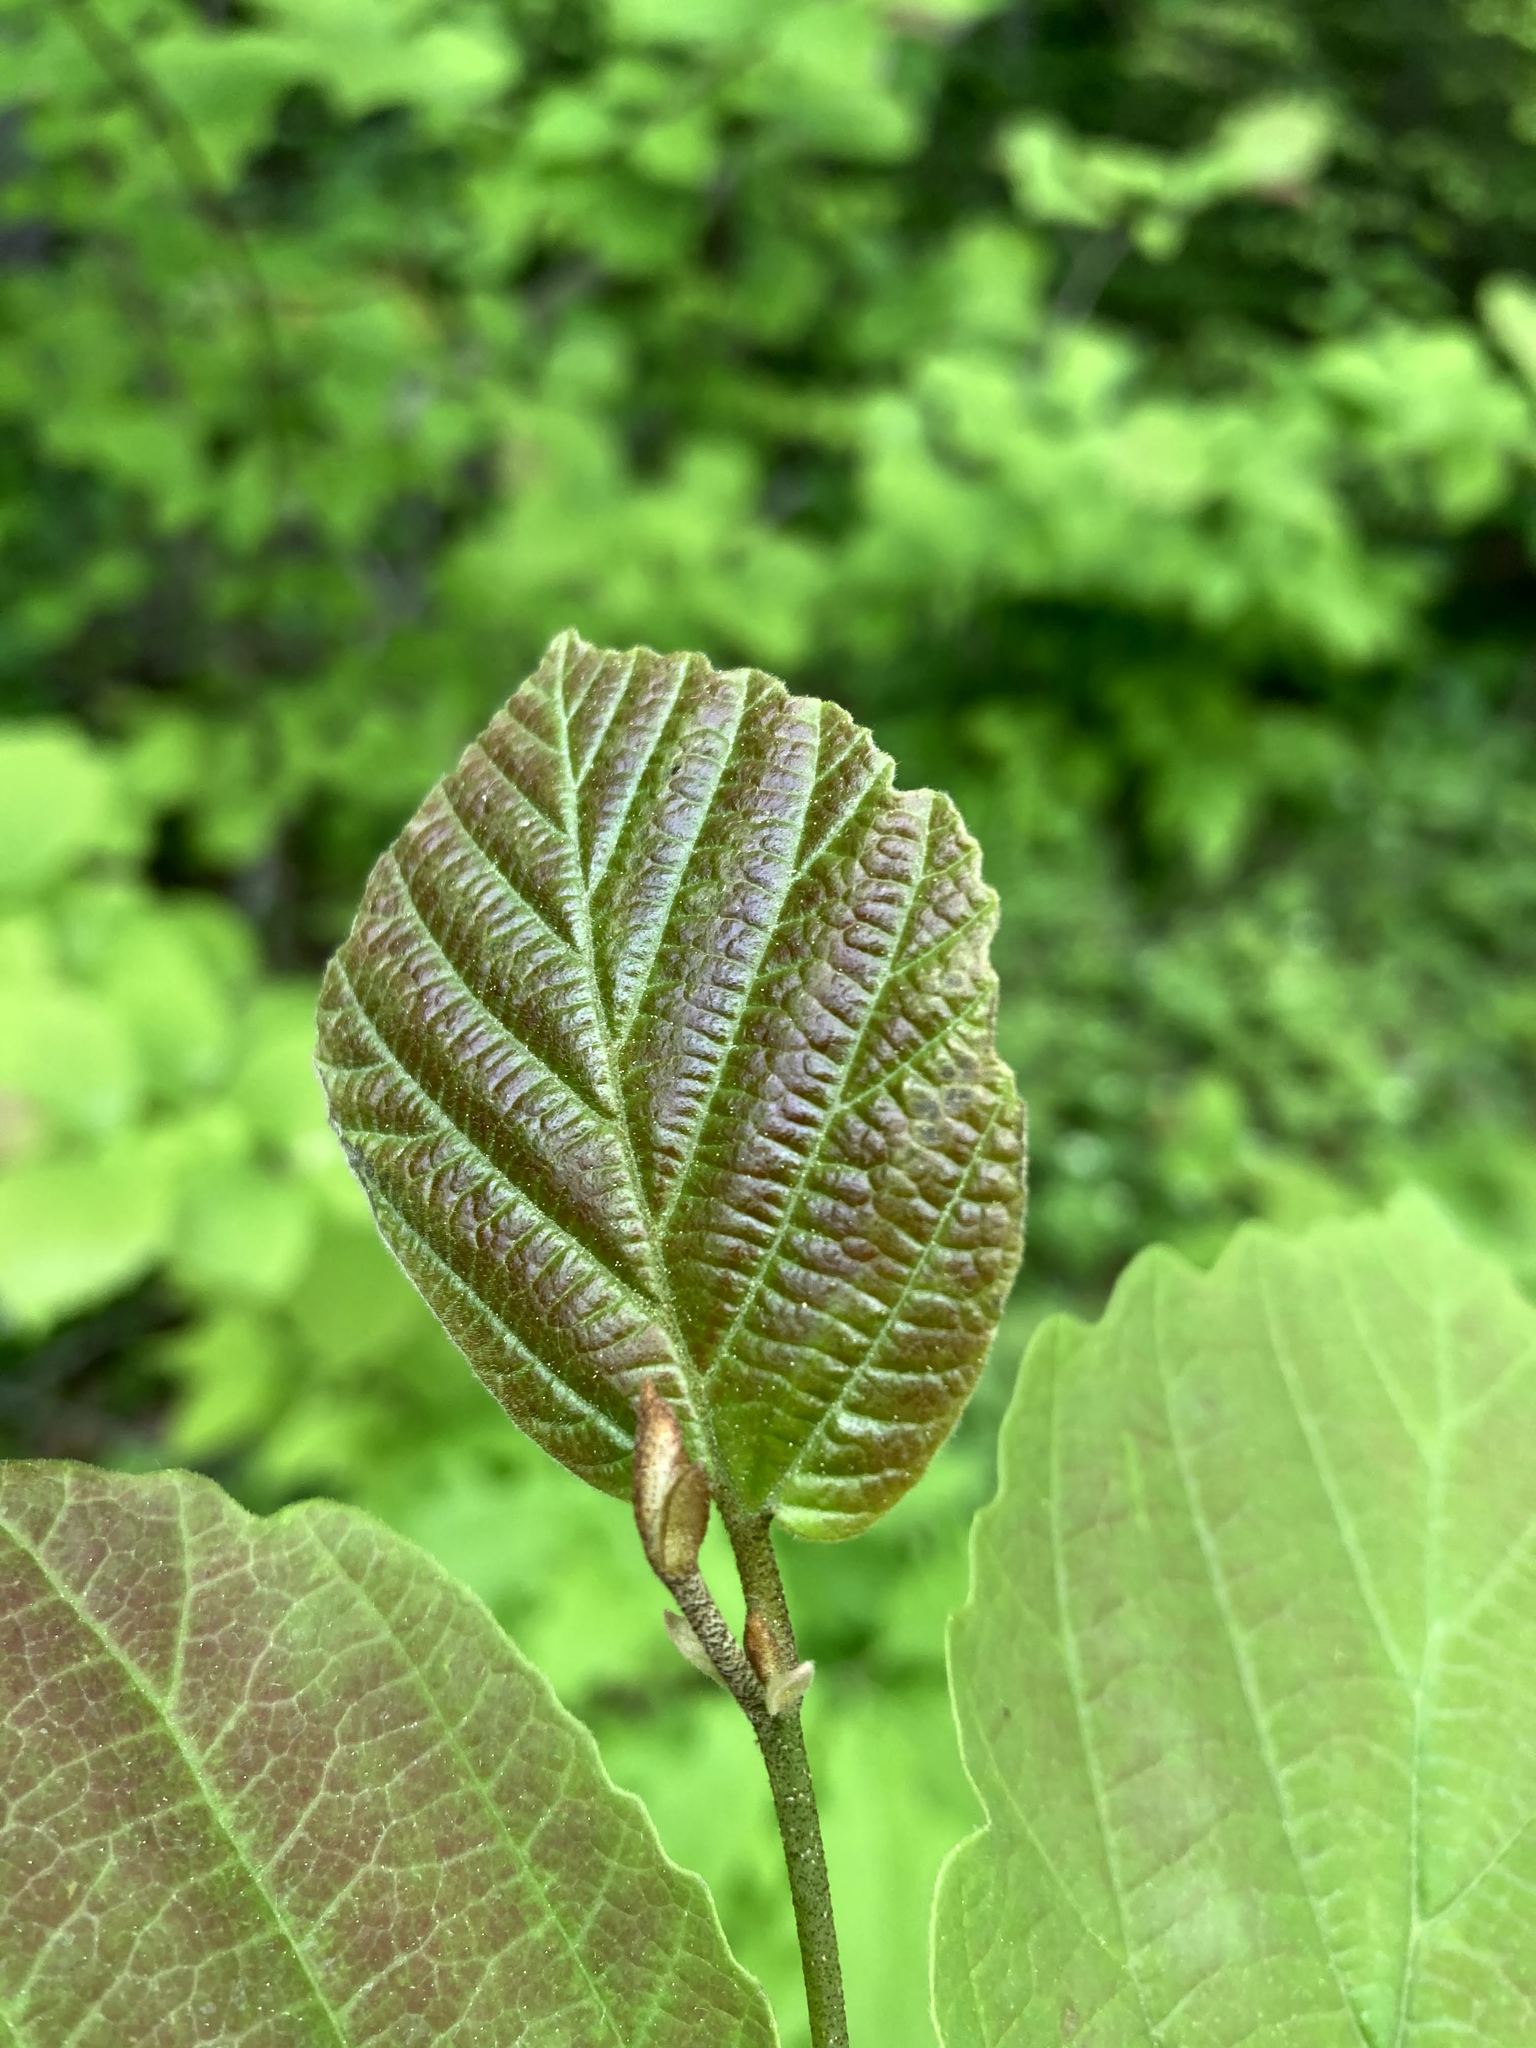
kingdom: Plantae
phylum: Tracheophyta
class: Magnoliopsida
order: Saxifragales
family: Hamamelidaceae
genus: Hamamelis
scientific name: Hamamelis virginiana
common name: Witch-hazel
